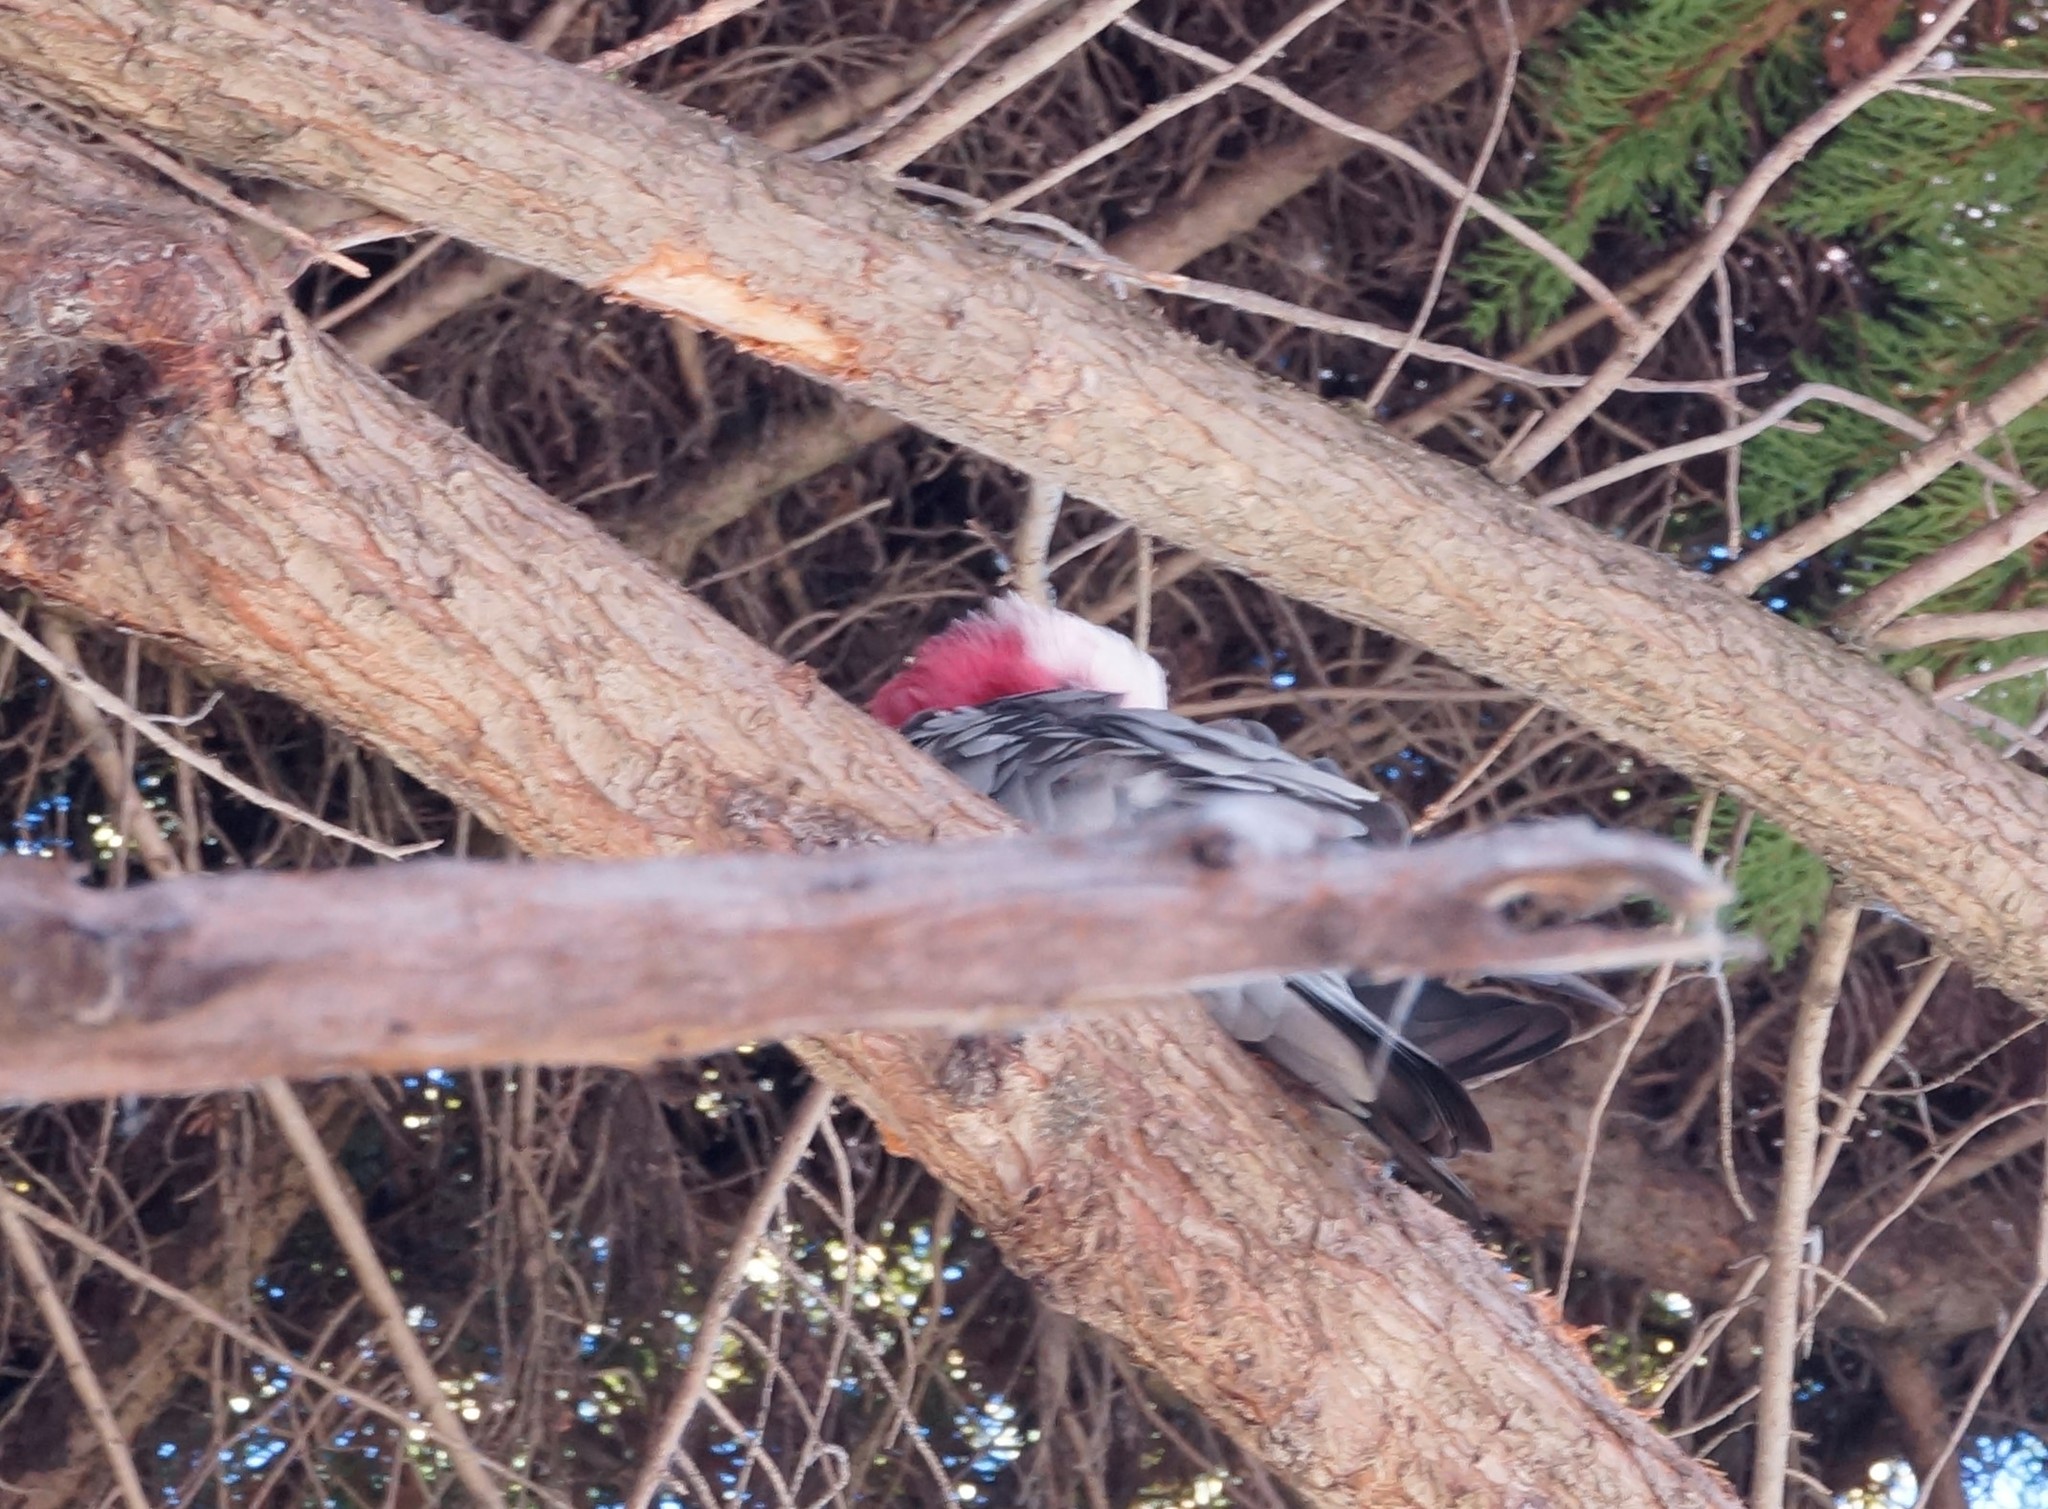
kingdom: Animalia
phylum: Chordata
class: Aves
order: Psittaciformes
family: Psittacidae
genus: Eolophus
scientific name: Eolophus roseicapilla
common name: Galah
